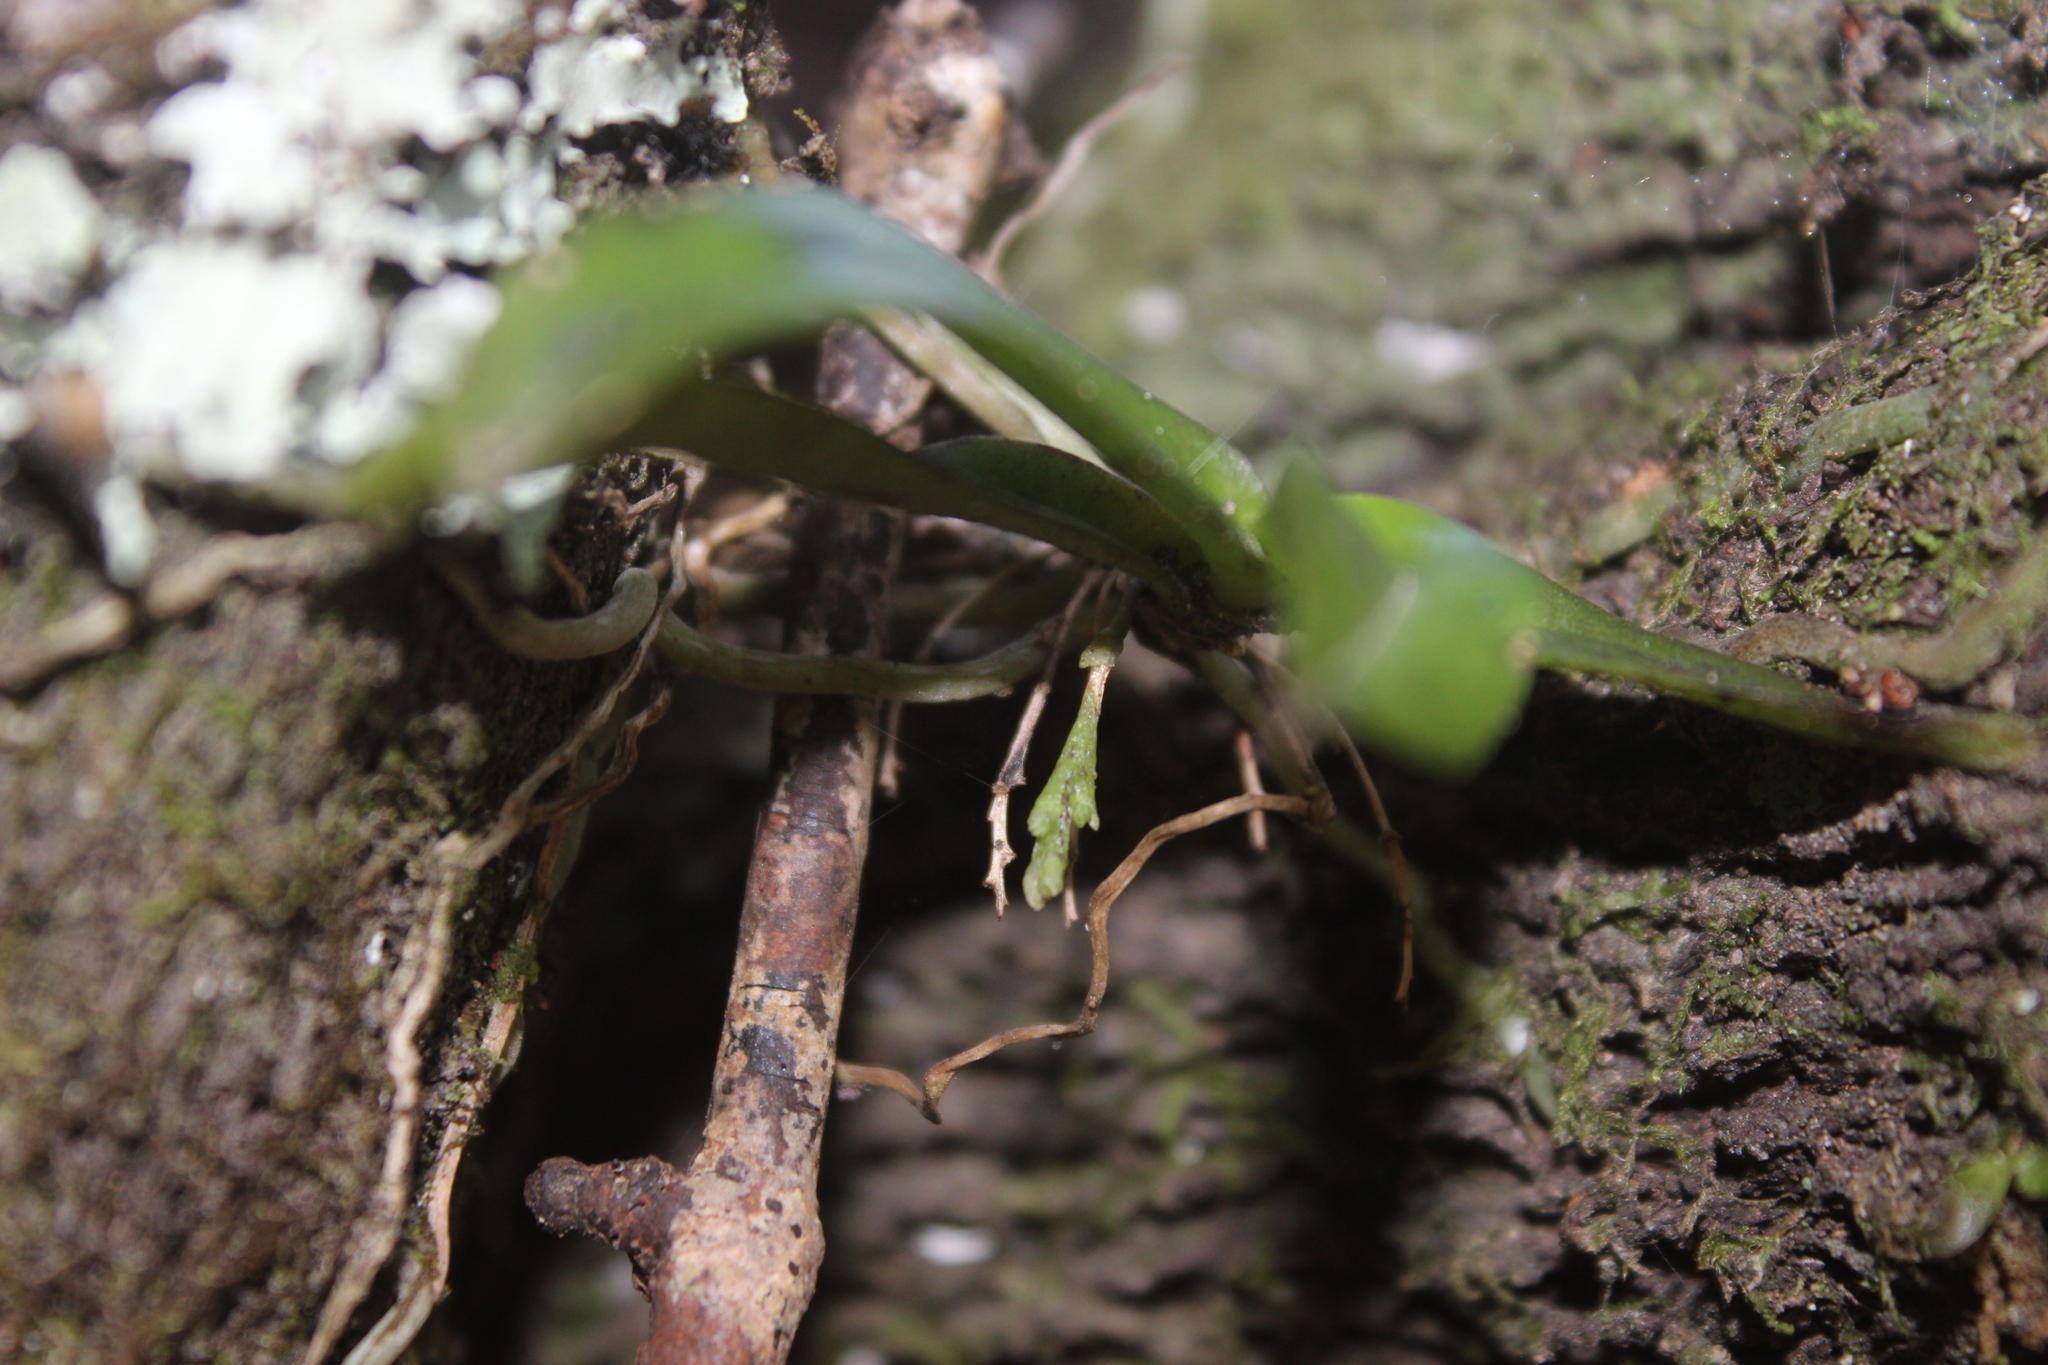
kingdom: Plantae
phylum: Tracheophyta
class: Liliopsida
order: Asparagales
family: Orchidaceae
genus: Drymoanthus
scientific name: Drymoanthus adversus
